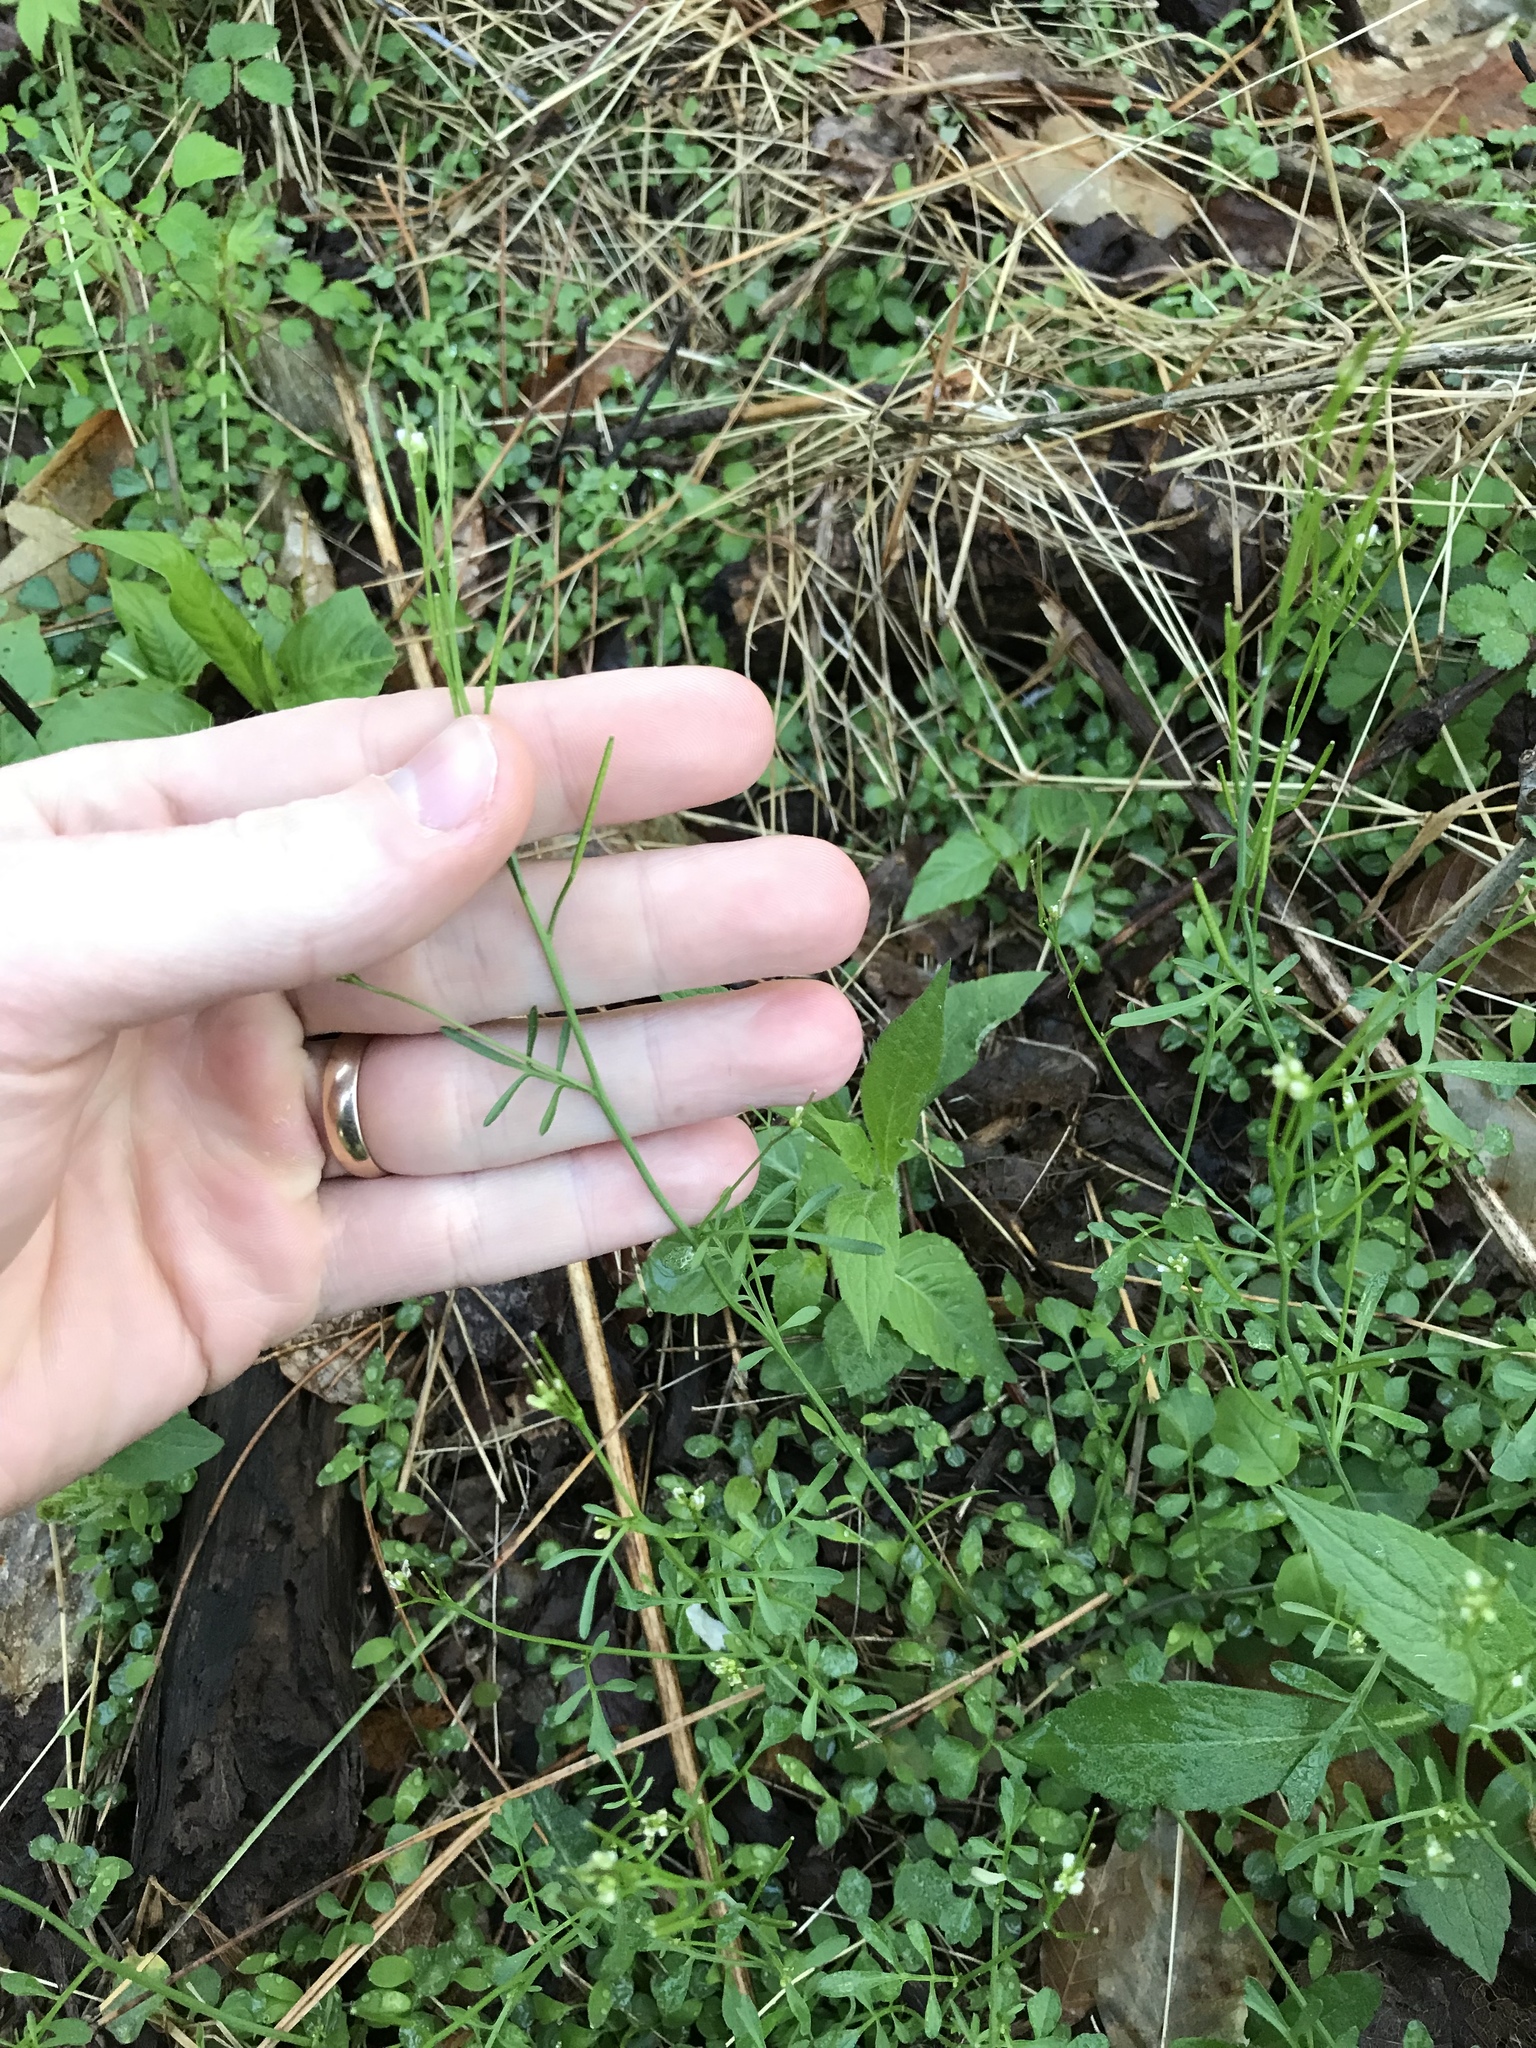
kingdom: Plantae
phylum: Tracheophyta
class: Magnoliopsida
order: Brassicales
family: Brassicaceae
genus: Cardamine
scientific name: Cardamine hirsuta
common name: Hairy bittercress
